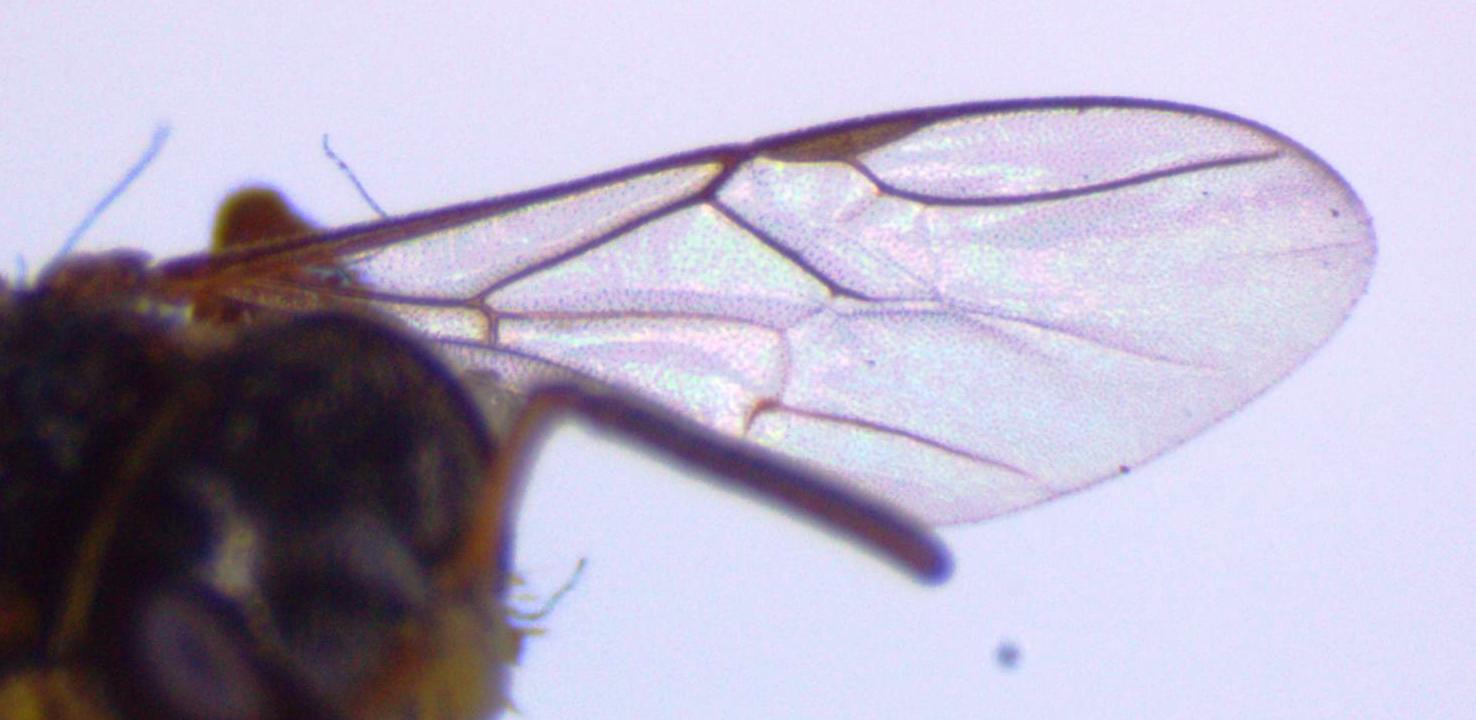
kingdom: Animalia
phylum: Arthropoda
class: Insecta
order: Hymenoptera
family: Apidae
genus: Tetragonisca
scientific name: Tetragonisca angustula
